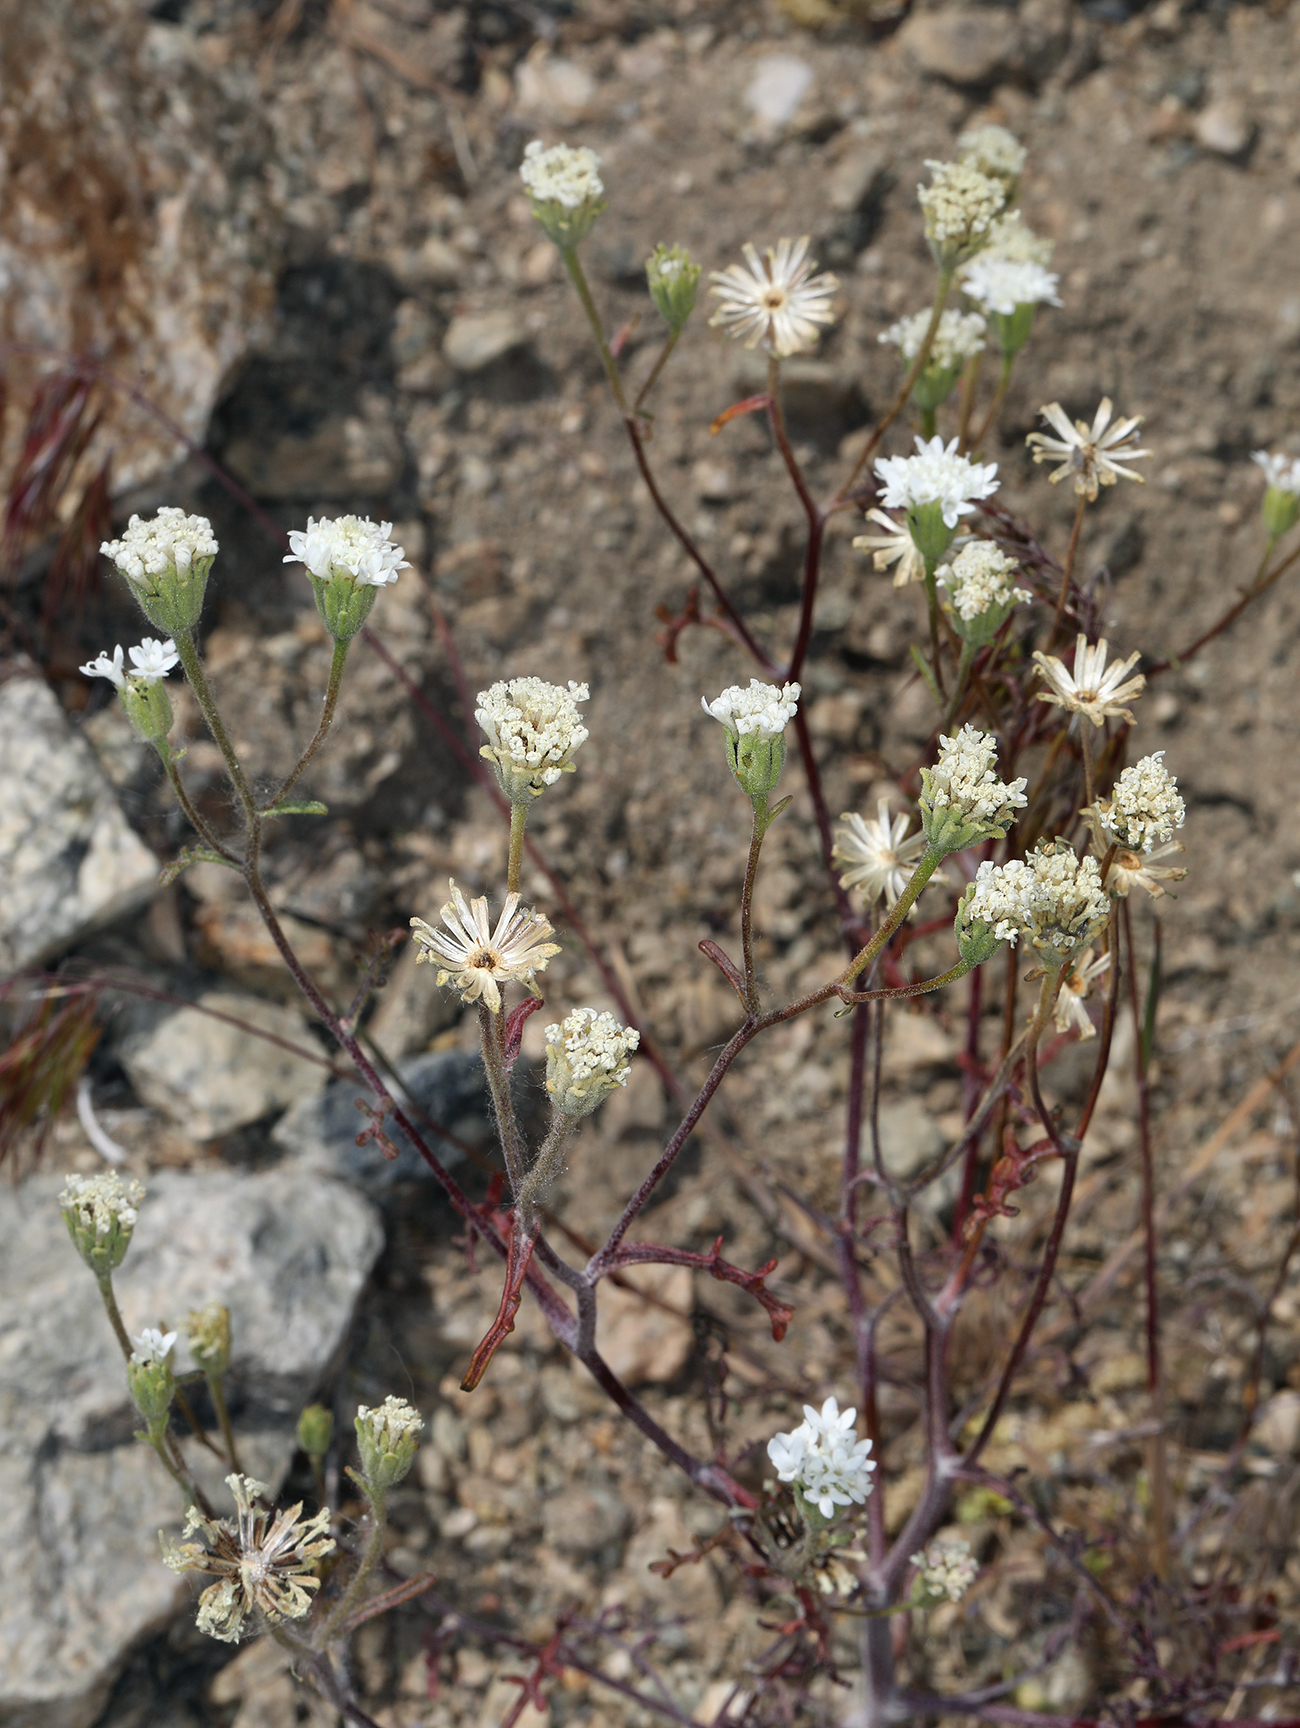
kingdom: Plantae
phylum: Tracheophyta
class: Magnoliopsida
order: Asterales
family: Asteraceae
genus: Chaenactis
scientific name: Chaenactis stevioides
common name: Desert pincushion
